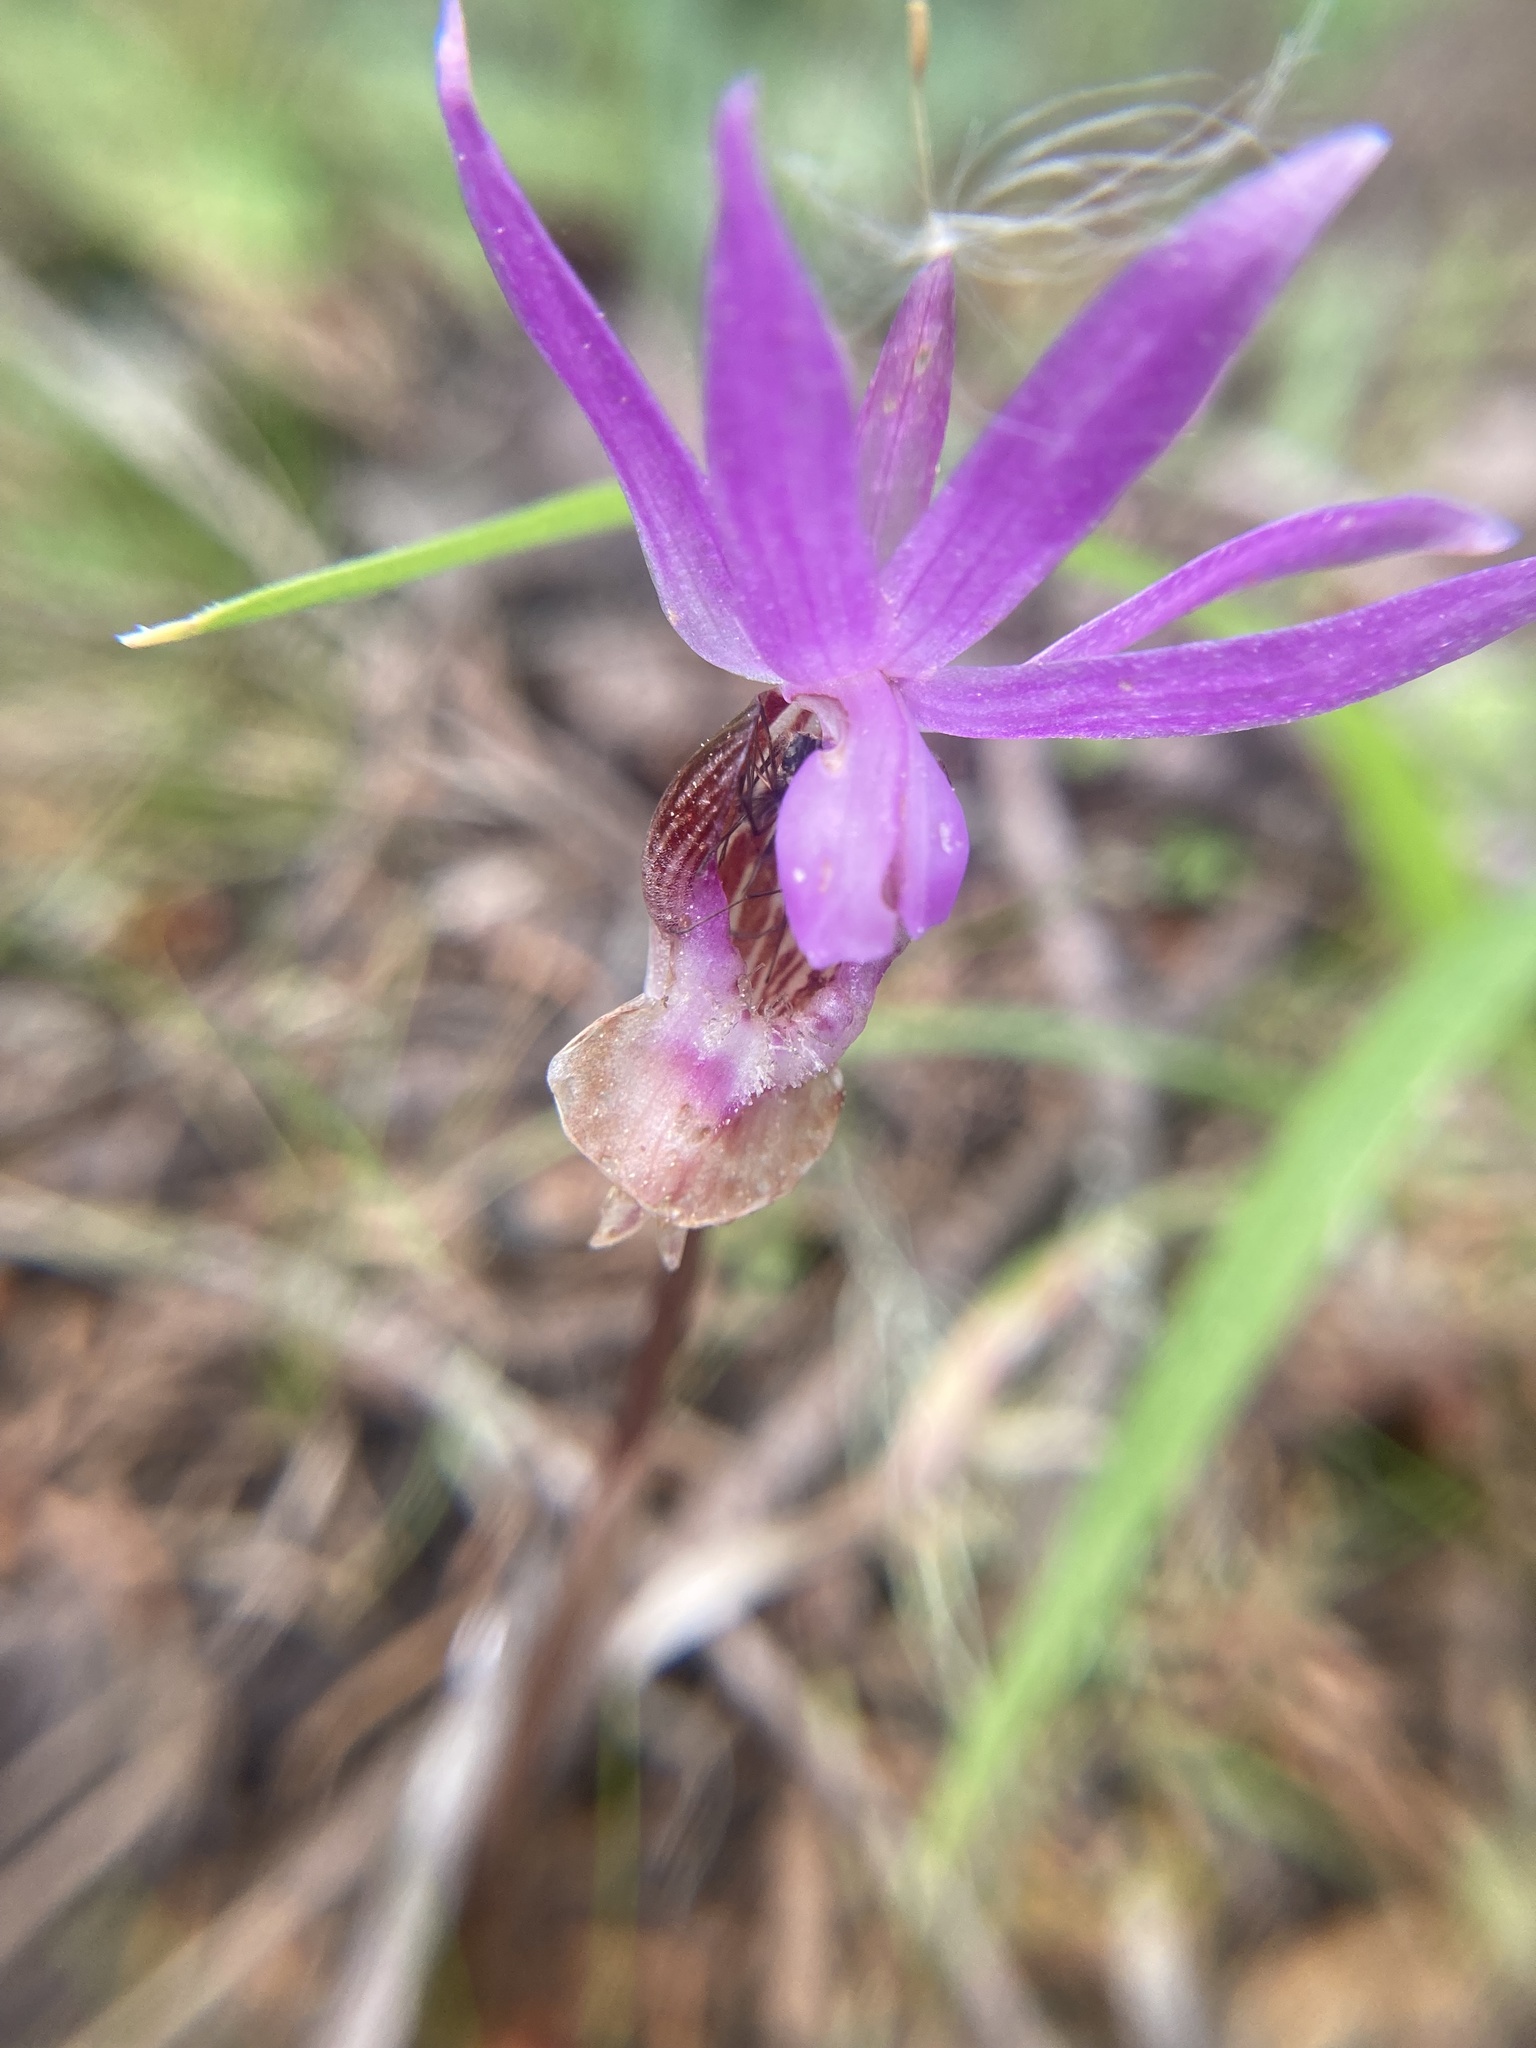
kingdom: Plantae
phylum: Tracheophyta
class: Liliopsida
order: Asparagales
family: Orchidaceae
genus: Calypso
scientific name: Calypso bulbosa
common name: Calypso
